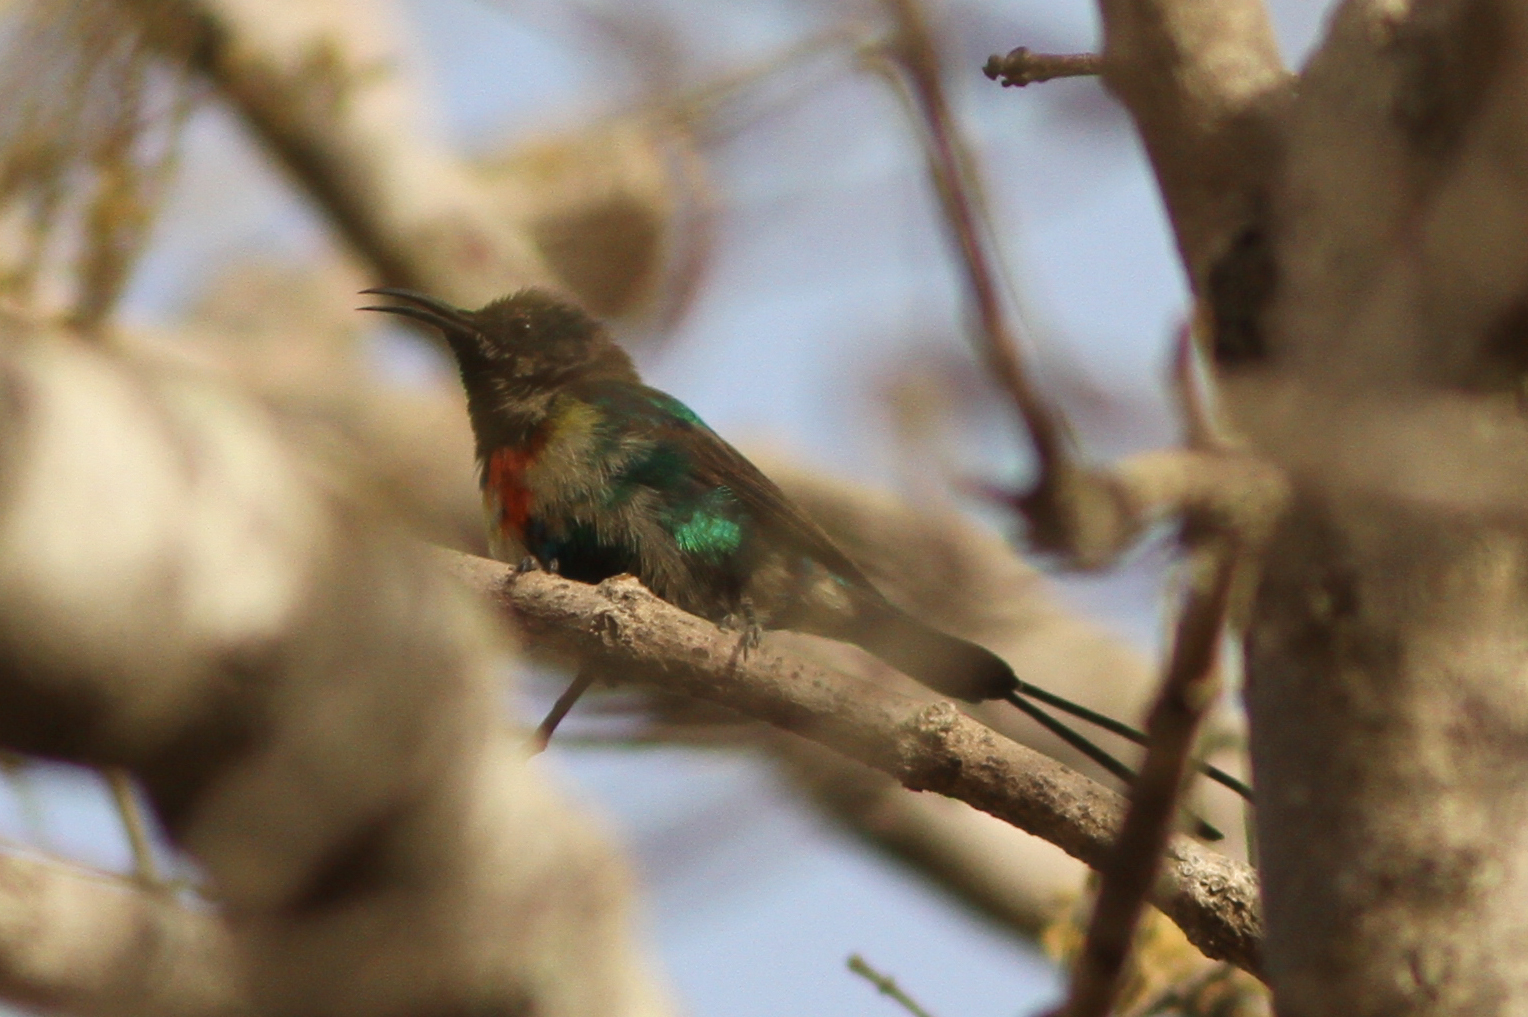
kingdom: Animalia
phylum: Chordata
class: Aves
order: Passeriformes
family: Nectariniidae
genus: Cinnyris
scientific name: Cinnyris pulchellus
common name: Beautiful sunbird
